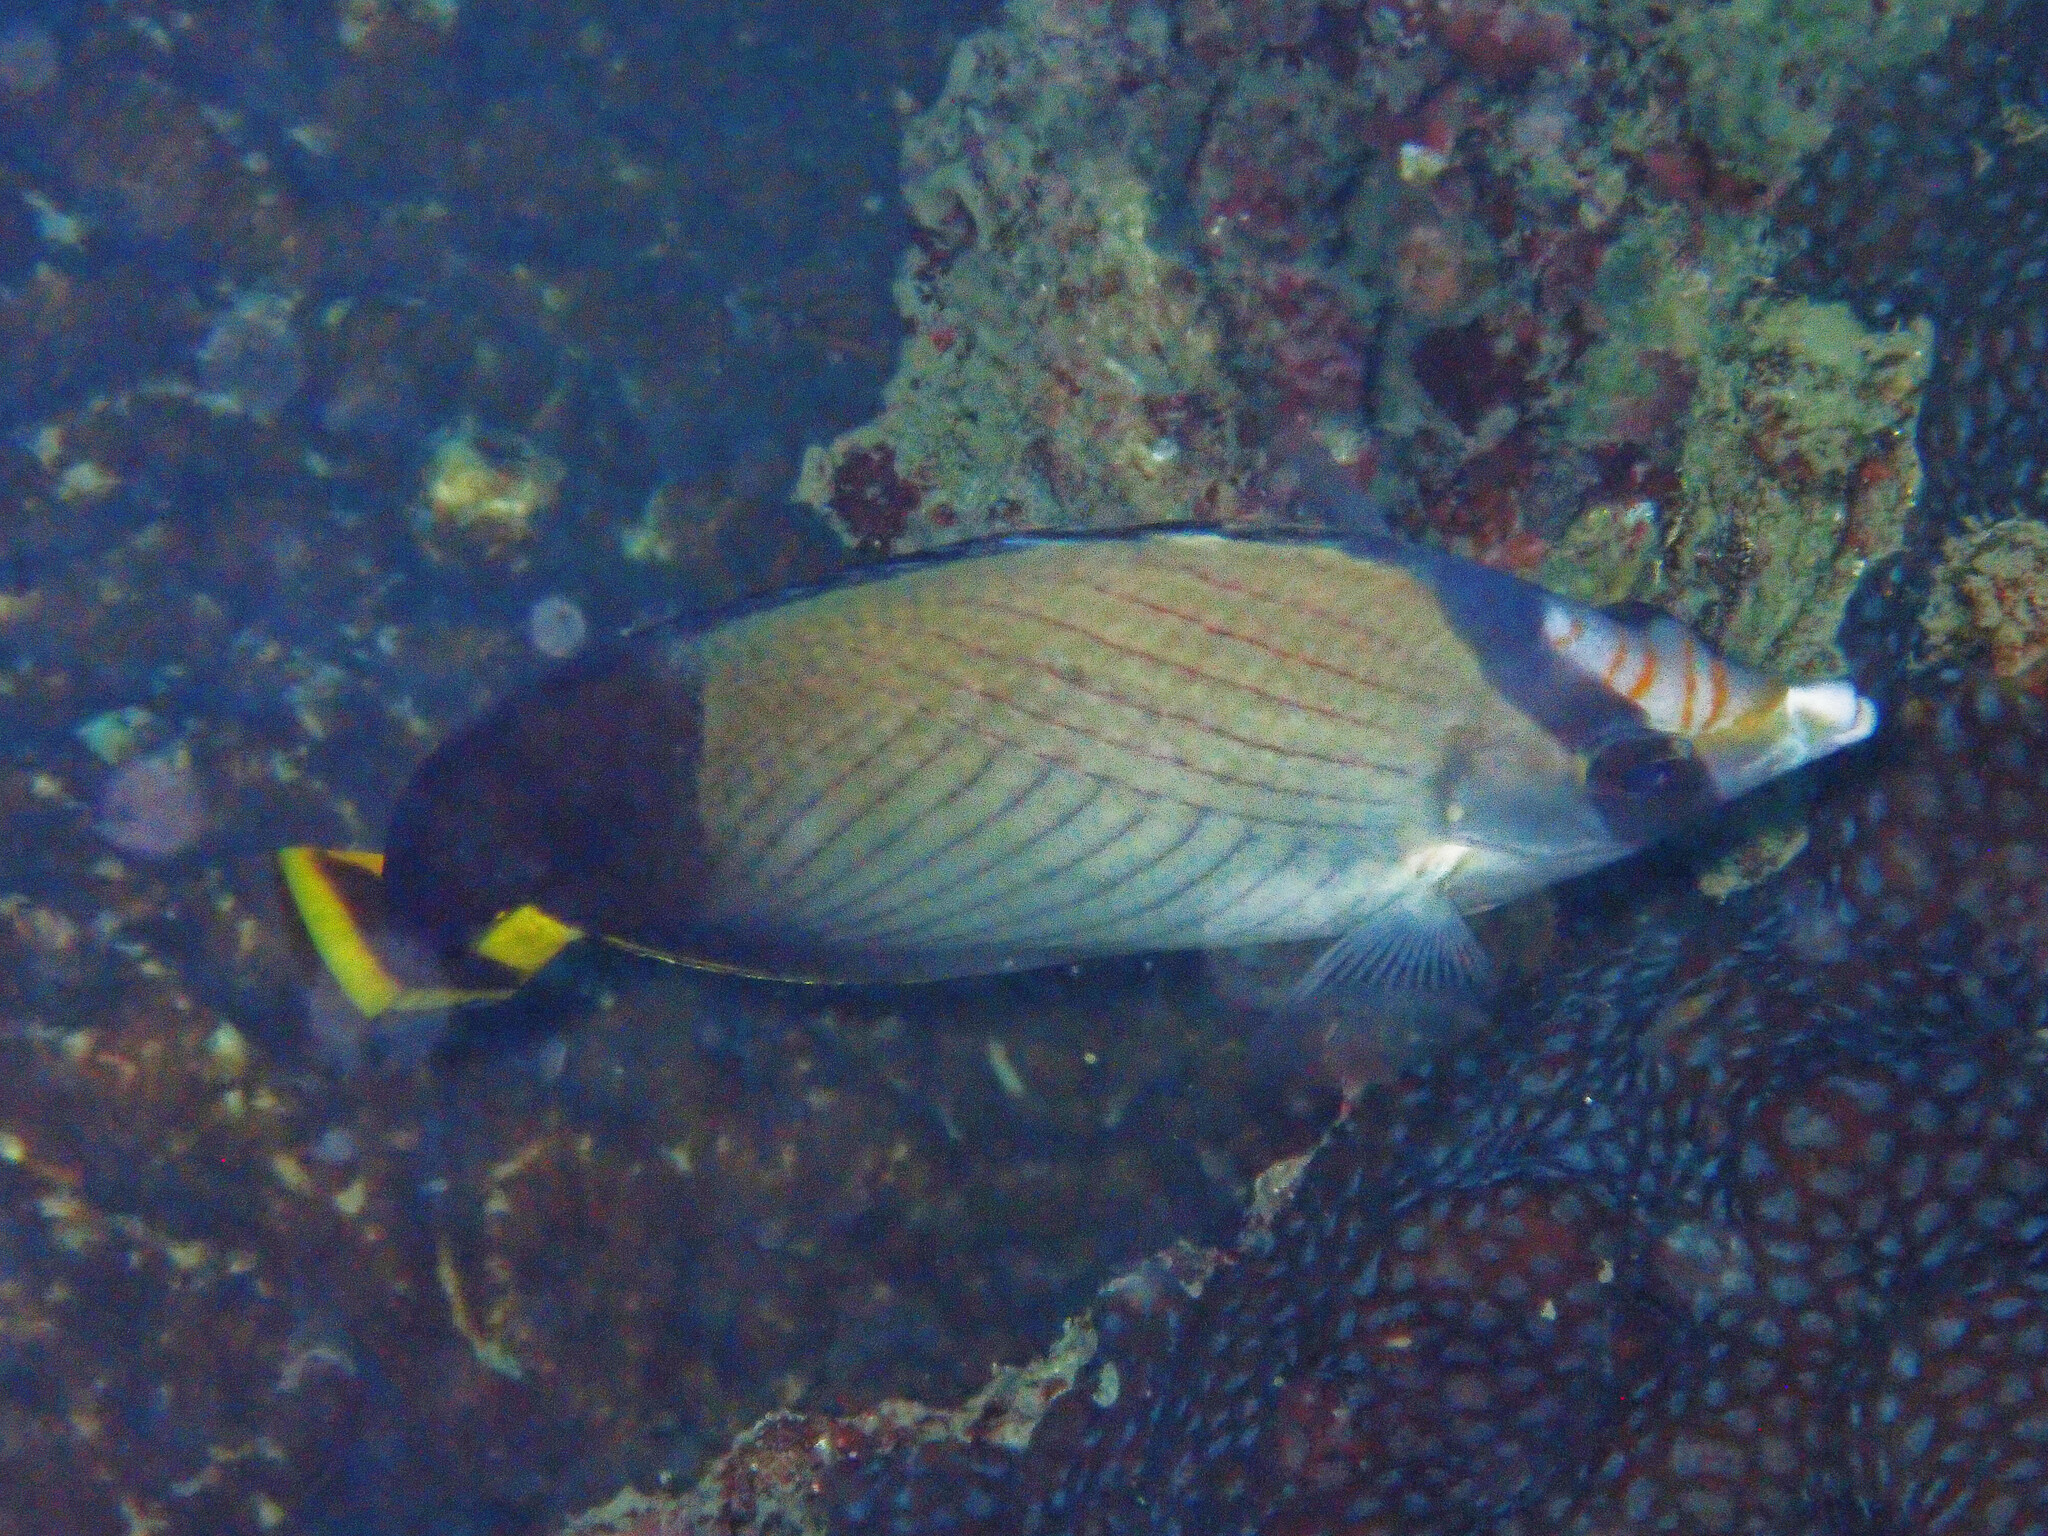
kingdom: Animalia
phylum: Chordata
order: Perciformes
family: Chaetodontidae
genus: Chaetodon
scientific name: Chaetodon decussatus
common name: Indian vagabond butterflyfish
